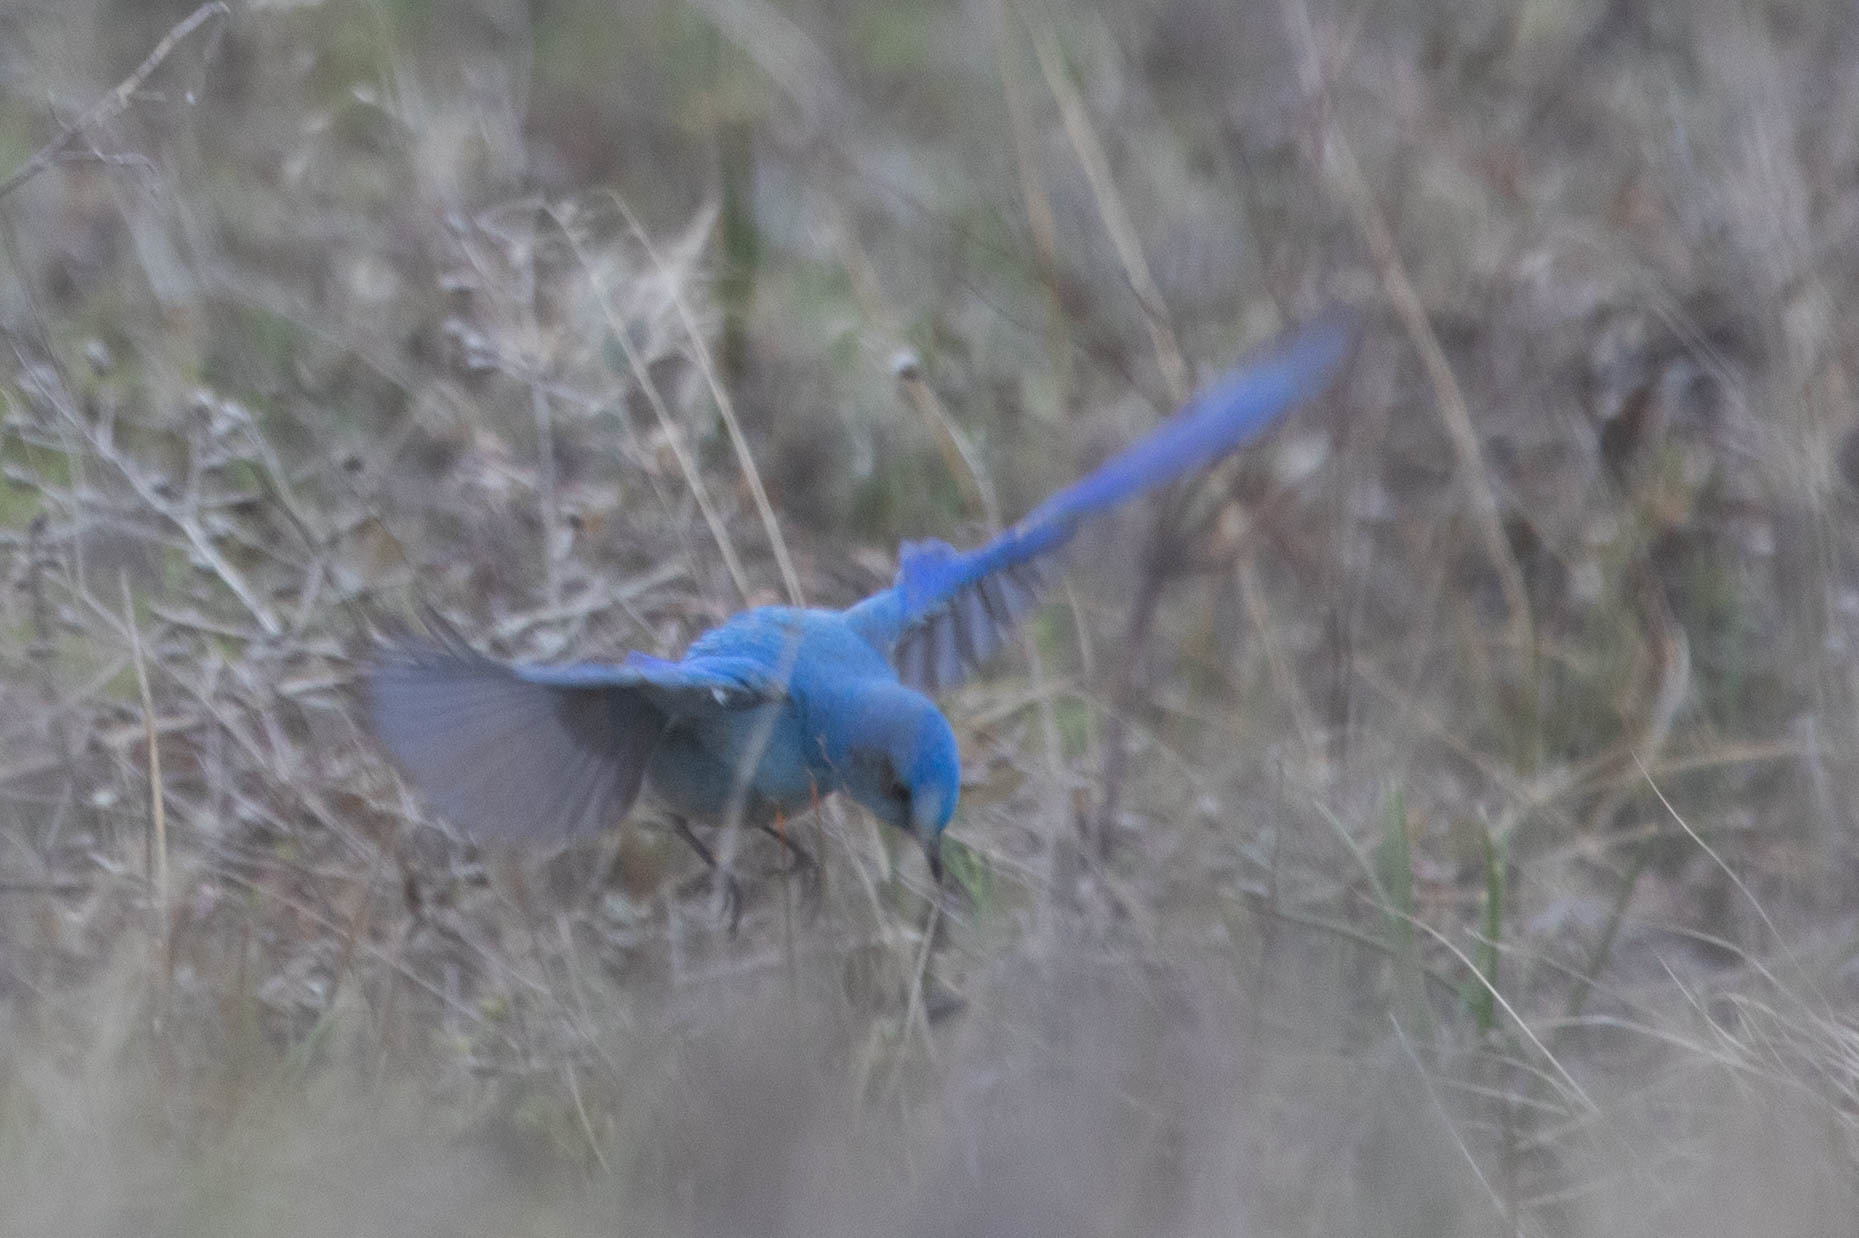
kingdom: Animalia
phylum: Chordata
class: Aves
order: Passeriformes
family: Turdidae
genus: Sialia
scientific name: Sialia currucoides
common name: Mountain bluebird
